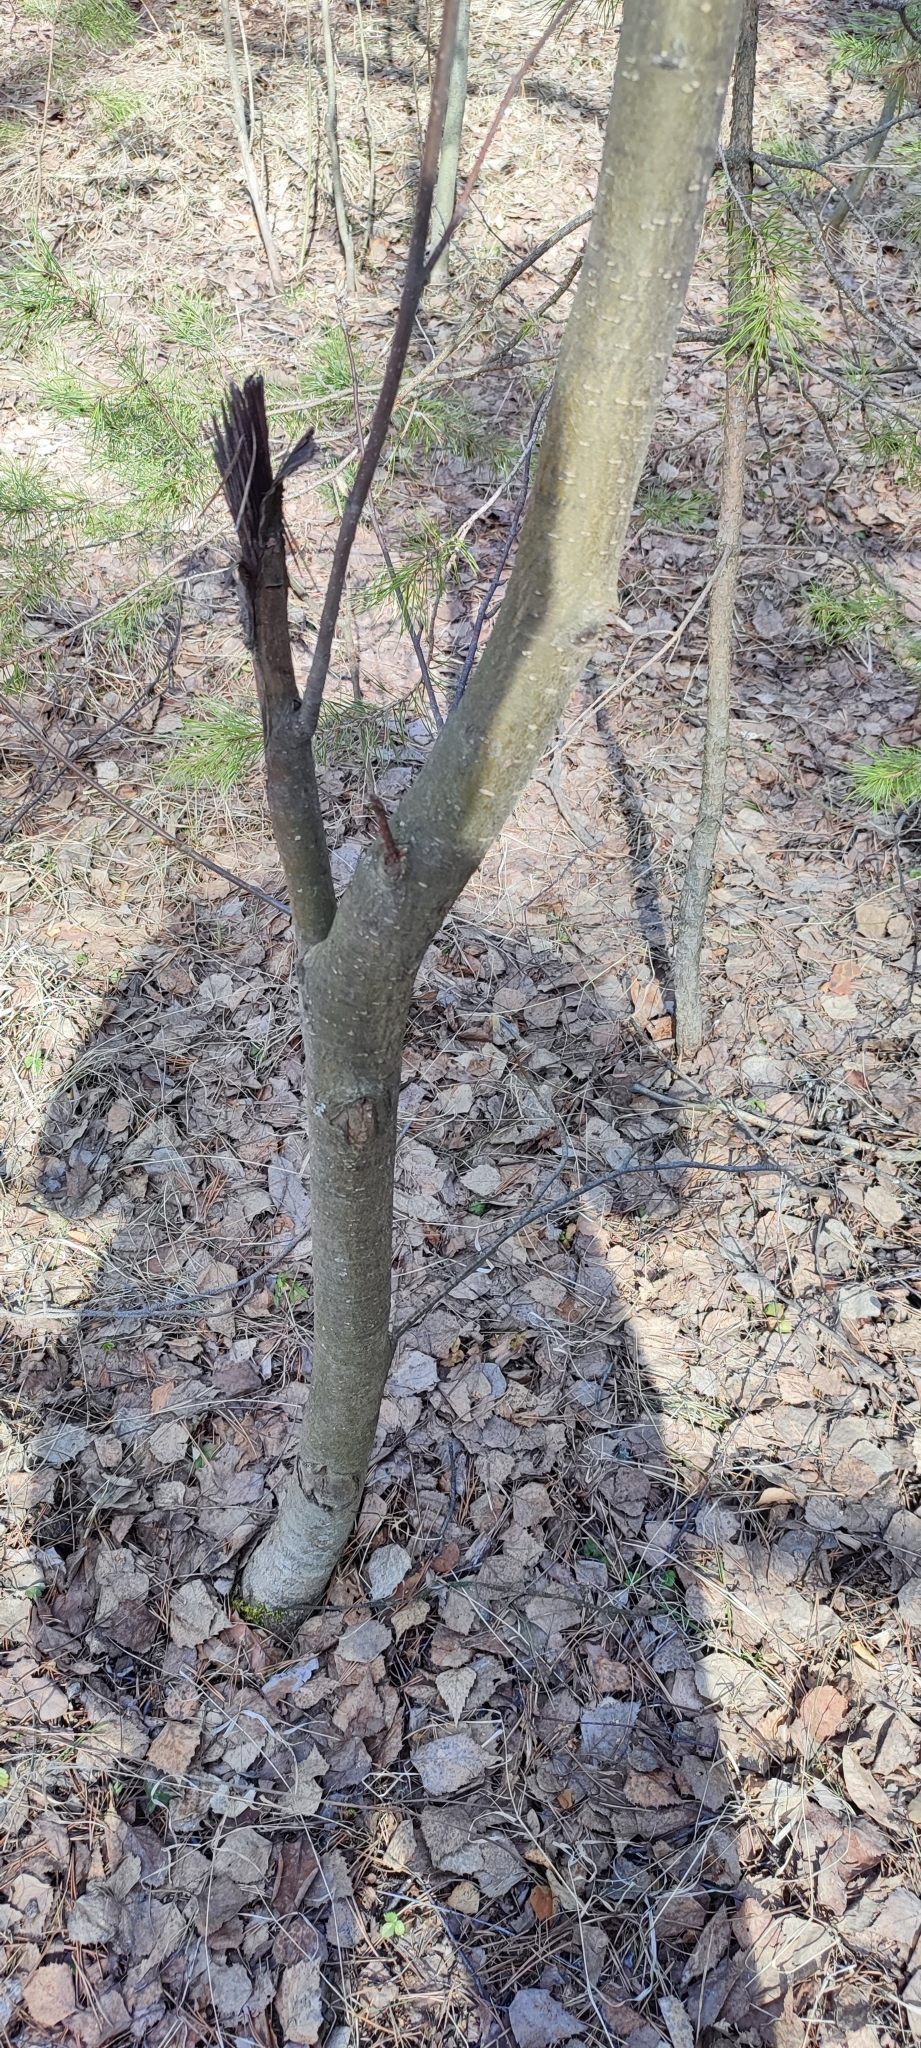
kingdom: Plantae
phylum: Tracheophyta
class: Magnoliopsida
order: Rosales
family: Rosaceae
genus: Sorbus
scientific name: Sorbus aucuparia
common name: Rowan
